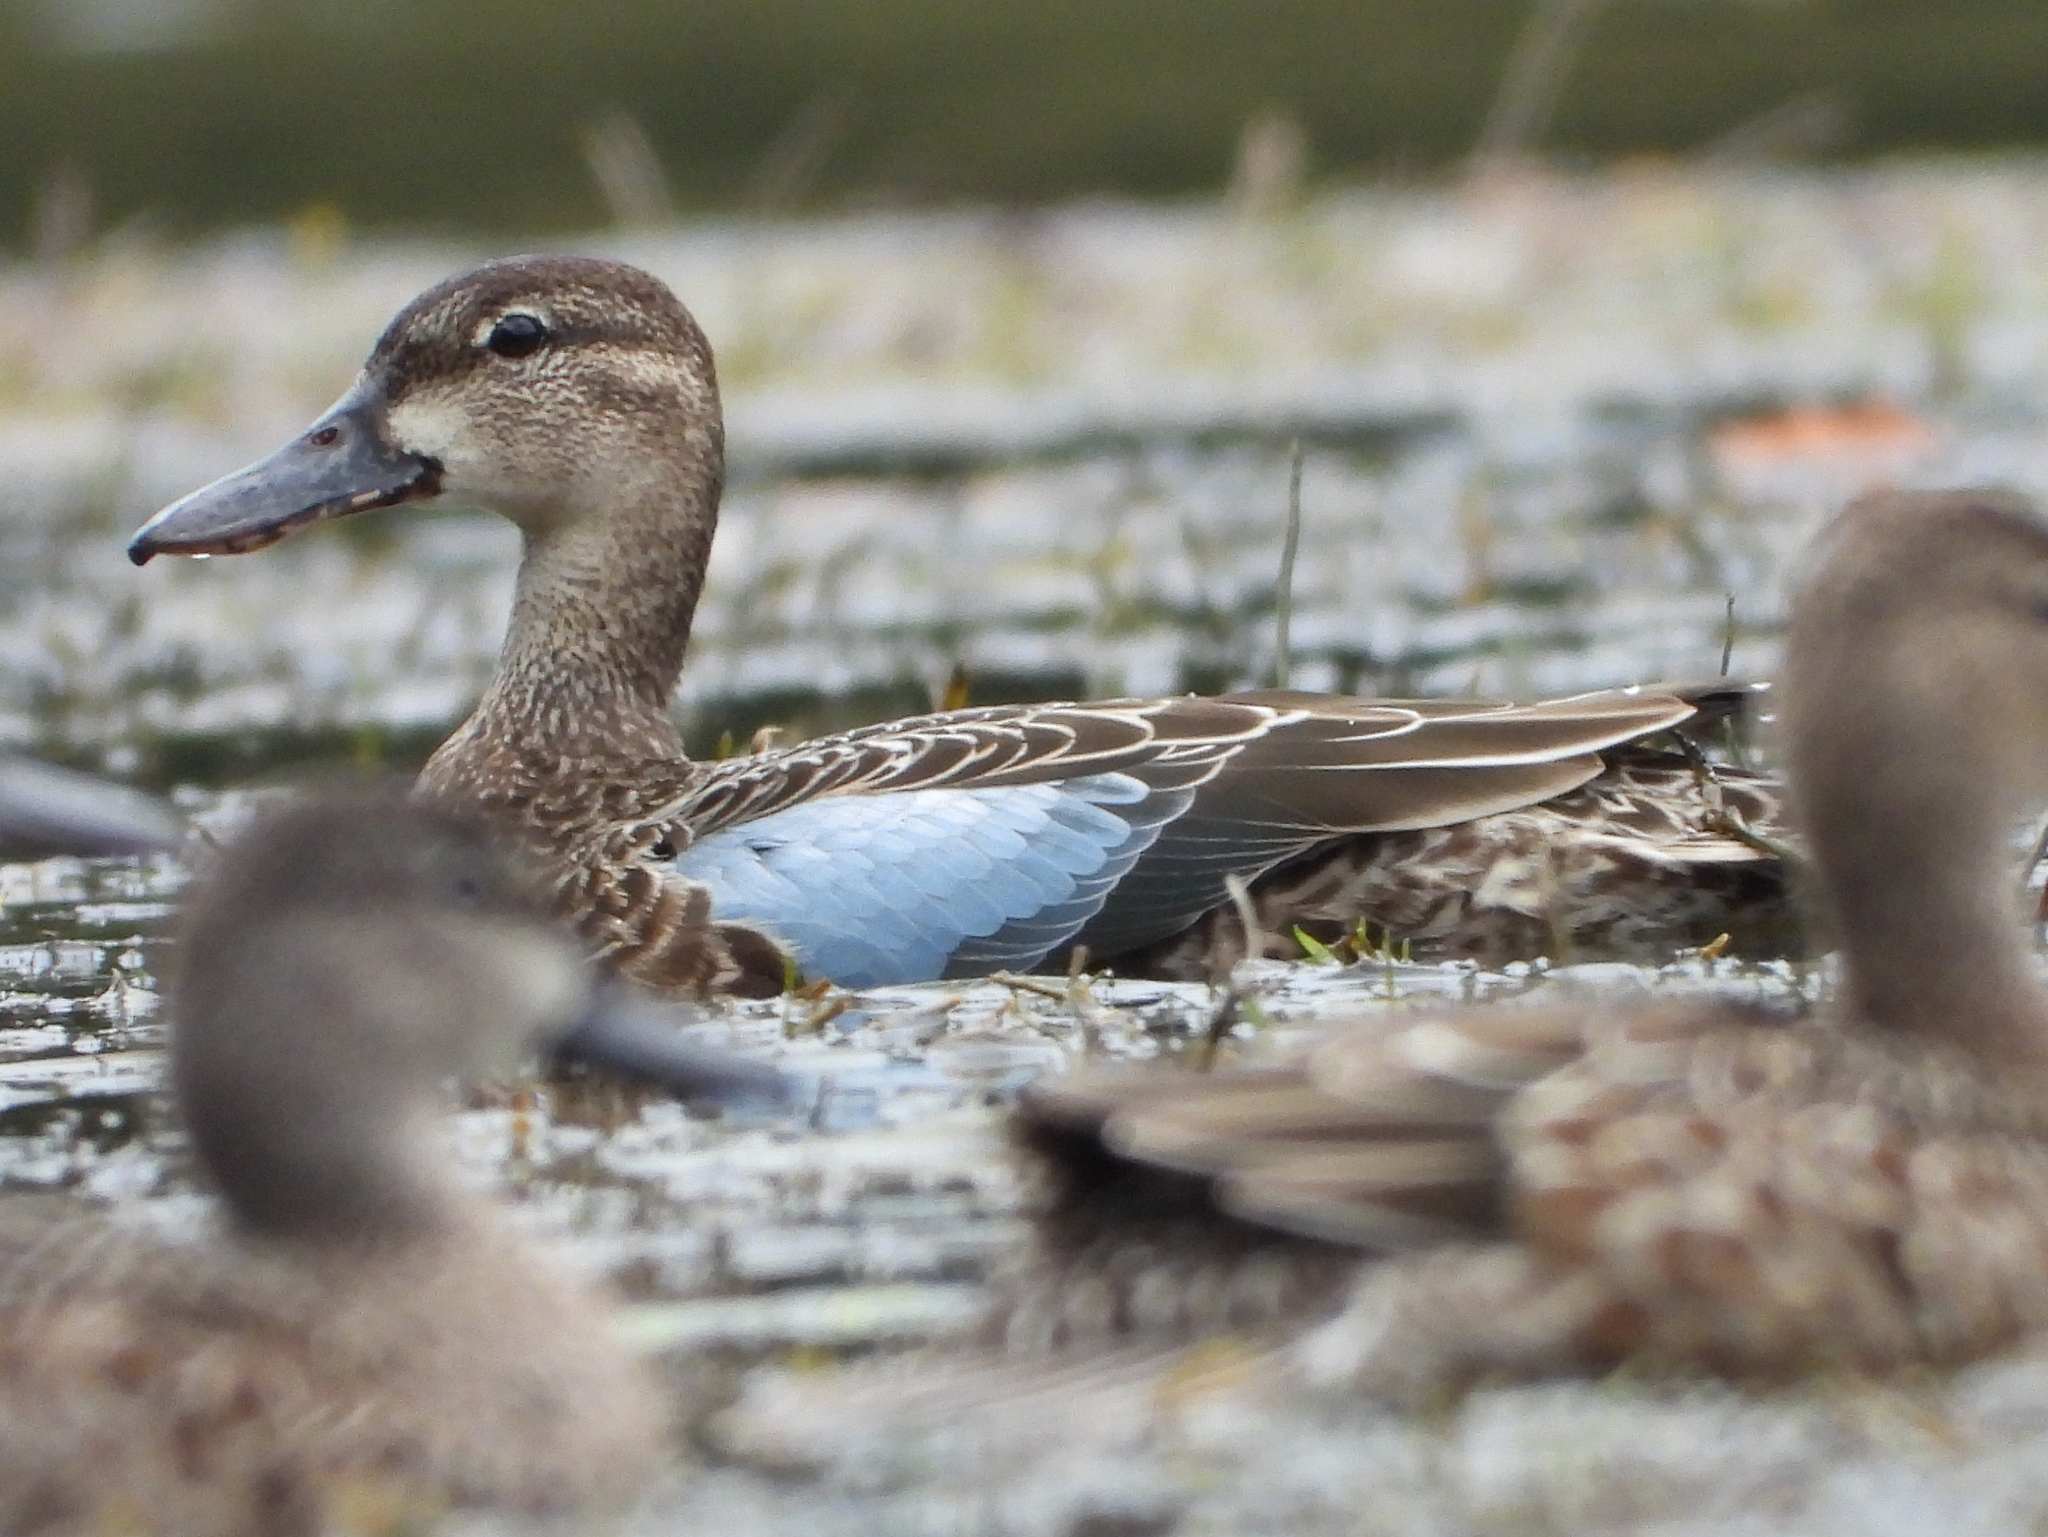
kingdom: Animalia
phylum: Chordata
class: Aves
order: Anseriformes
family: Anatidae
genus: Spatula
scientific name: Spatula discors
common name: Blue-winged teal
